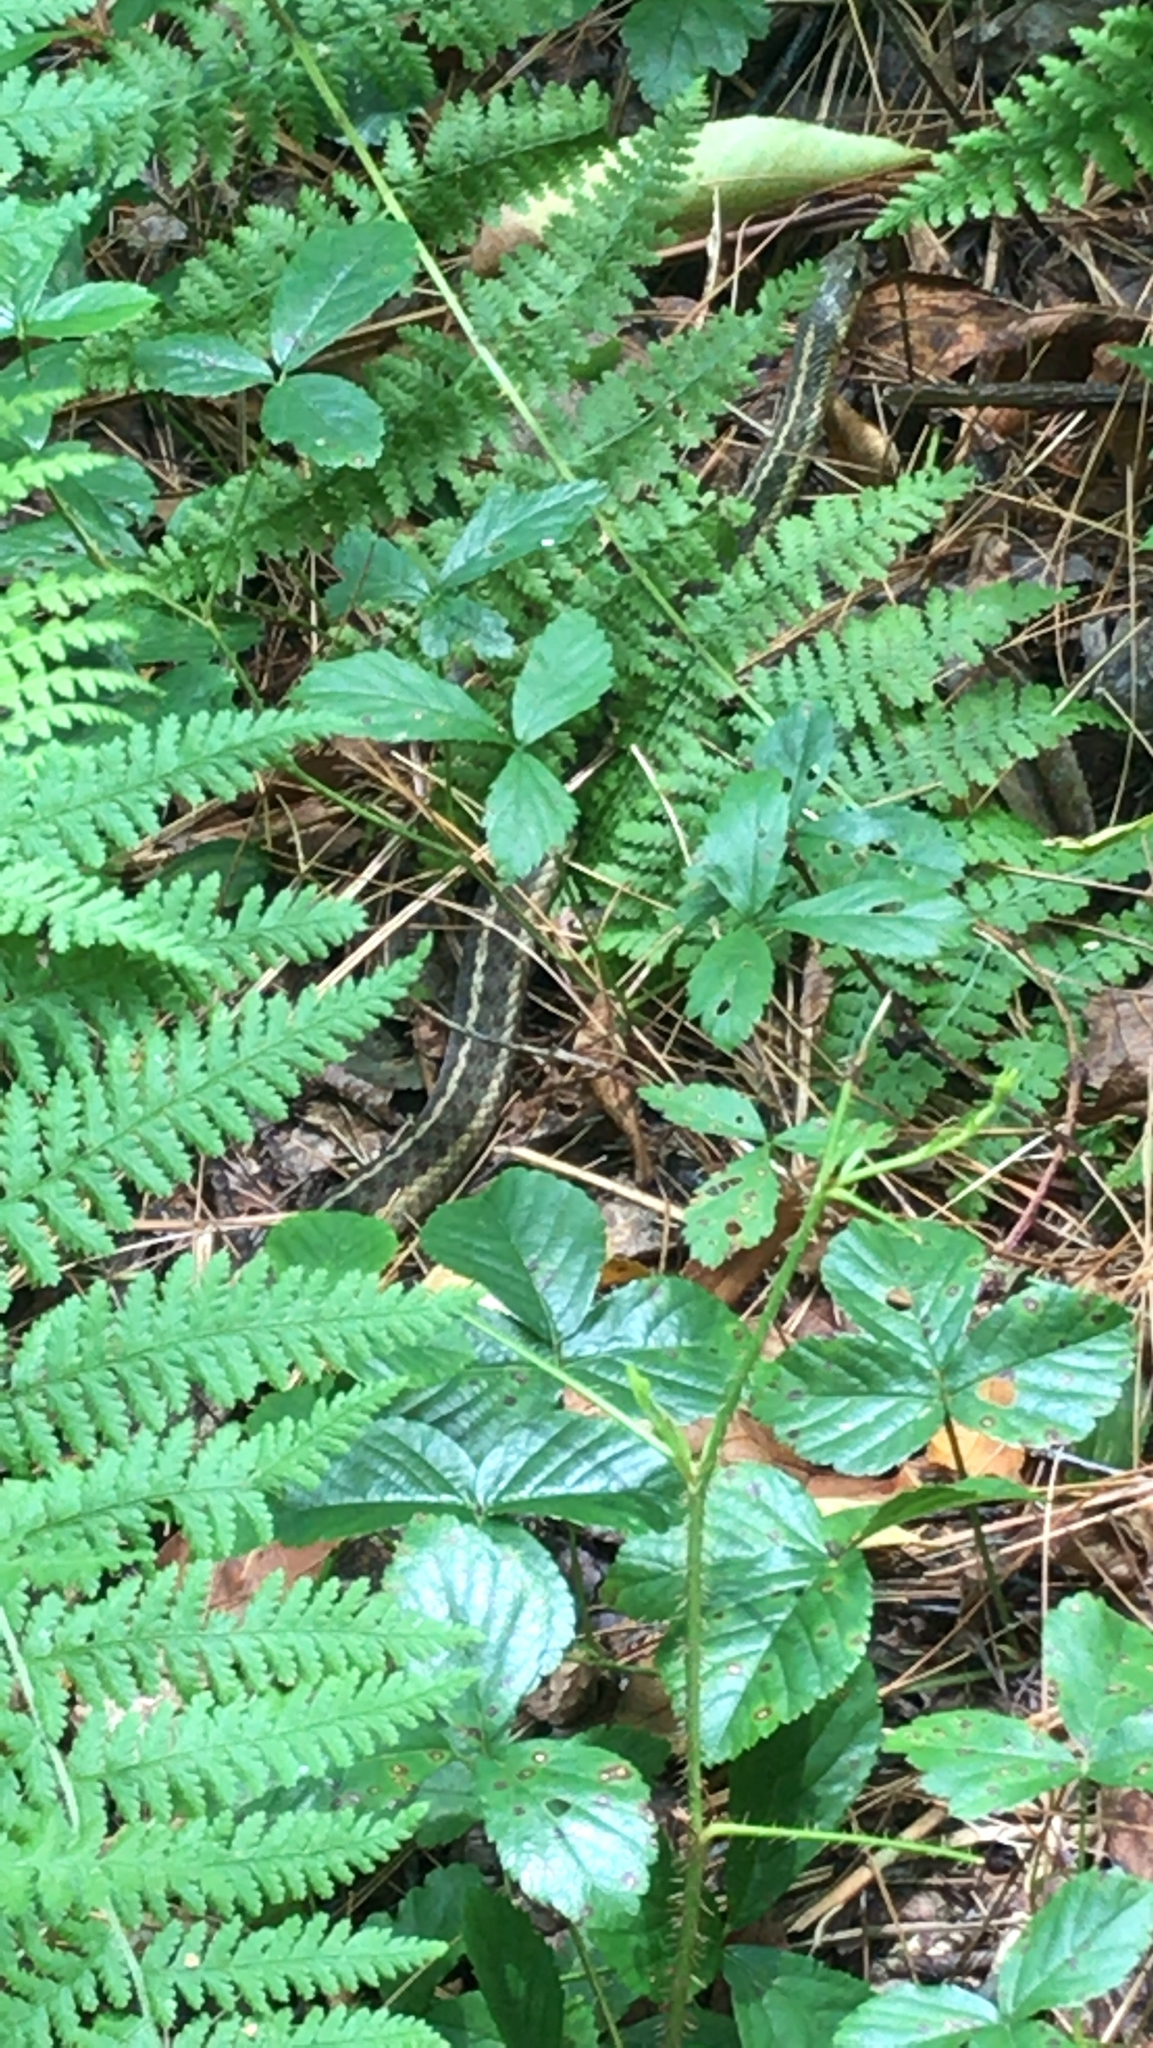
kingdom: Animalia
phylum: Chordata
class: Squamata
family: Colubridae
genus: Thamnophis
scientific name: Thamnophis sirtalis
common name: Common garter snake
